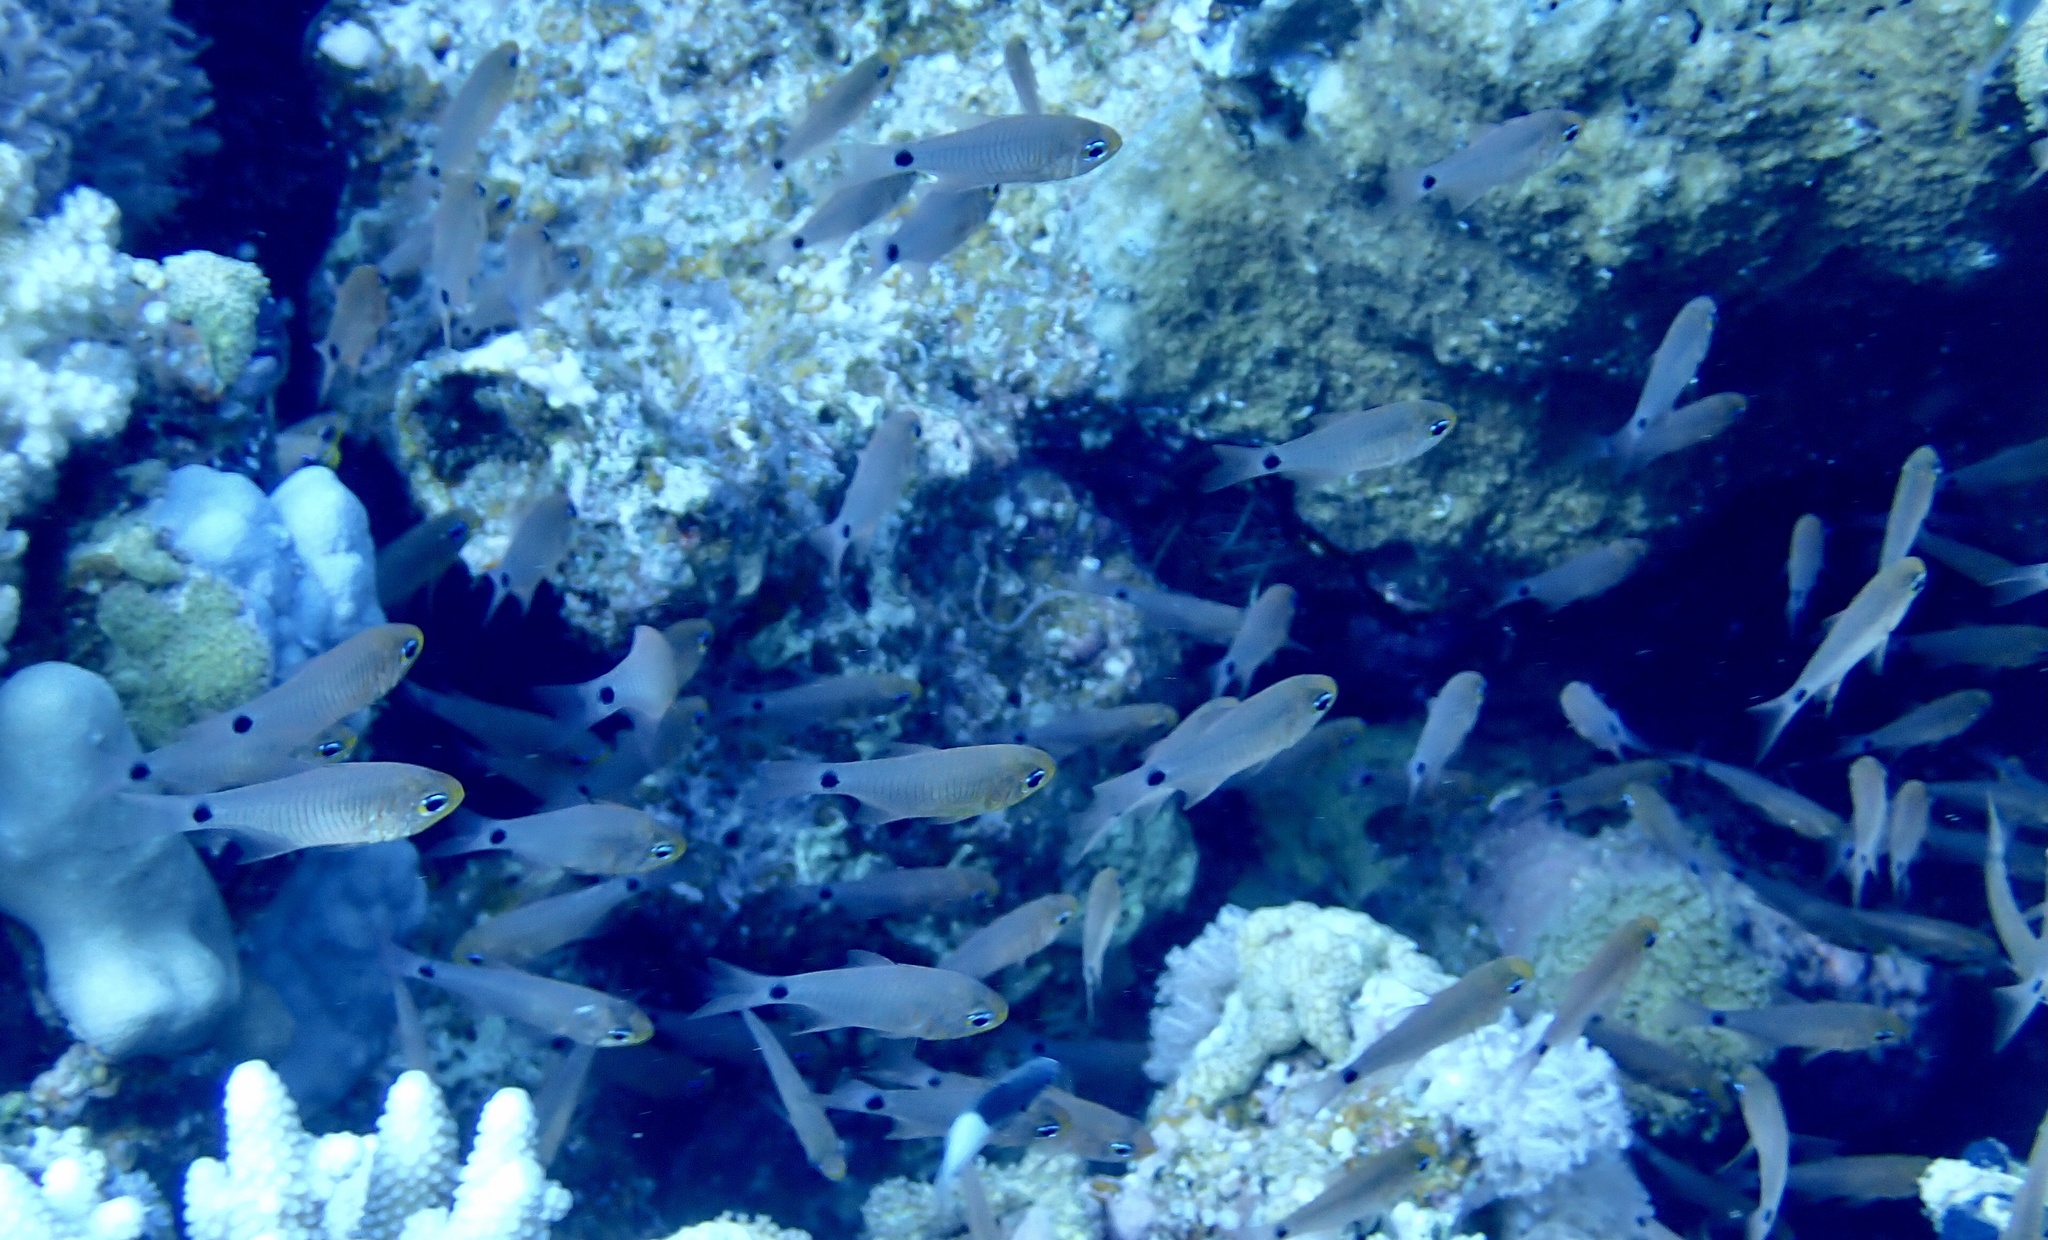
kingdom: Animalia
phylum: Chordata
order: Perciformes
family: Apogonidae
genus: Taeniamia
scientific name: Taeniamia fucata
